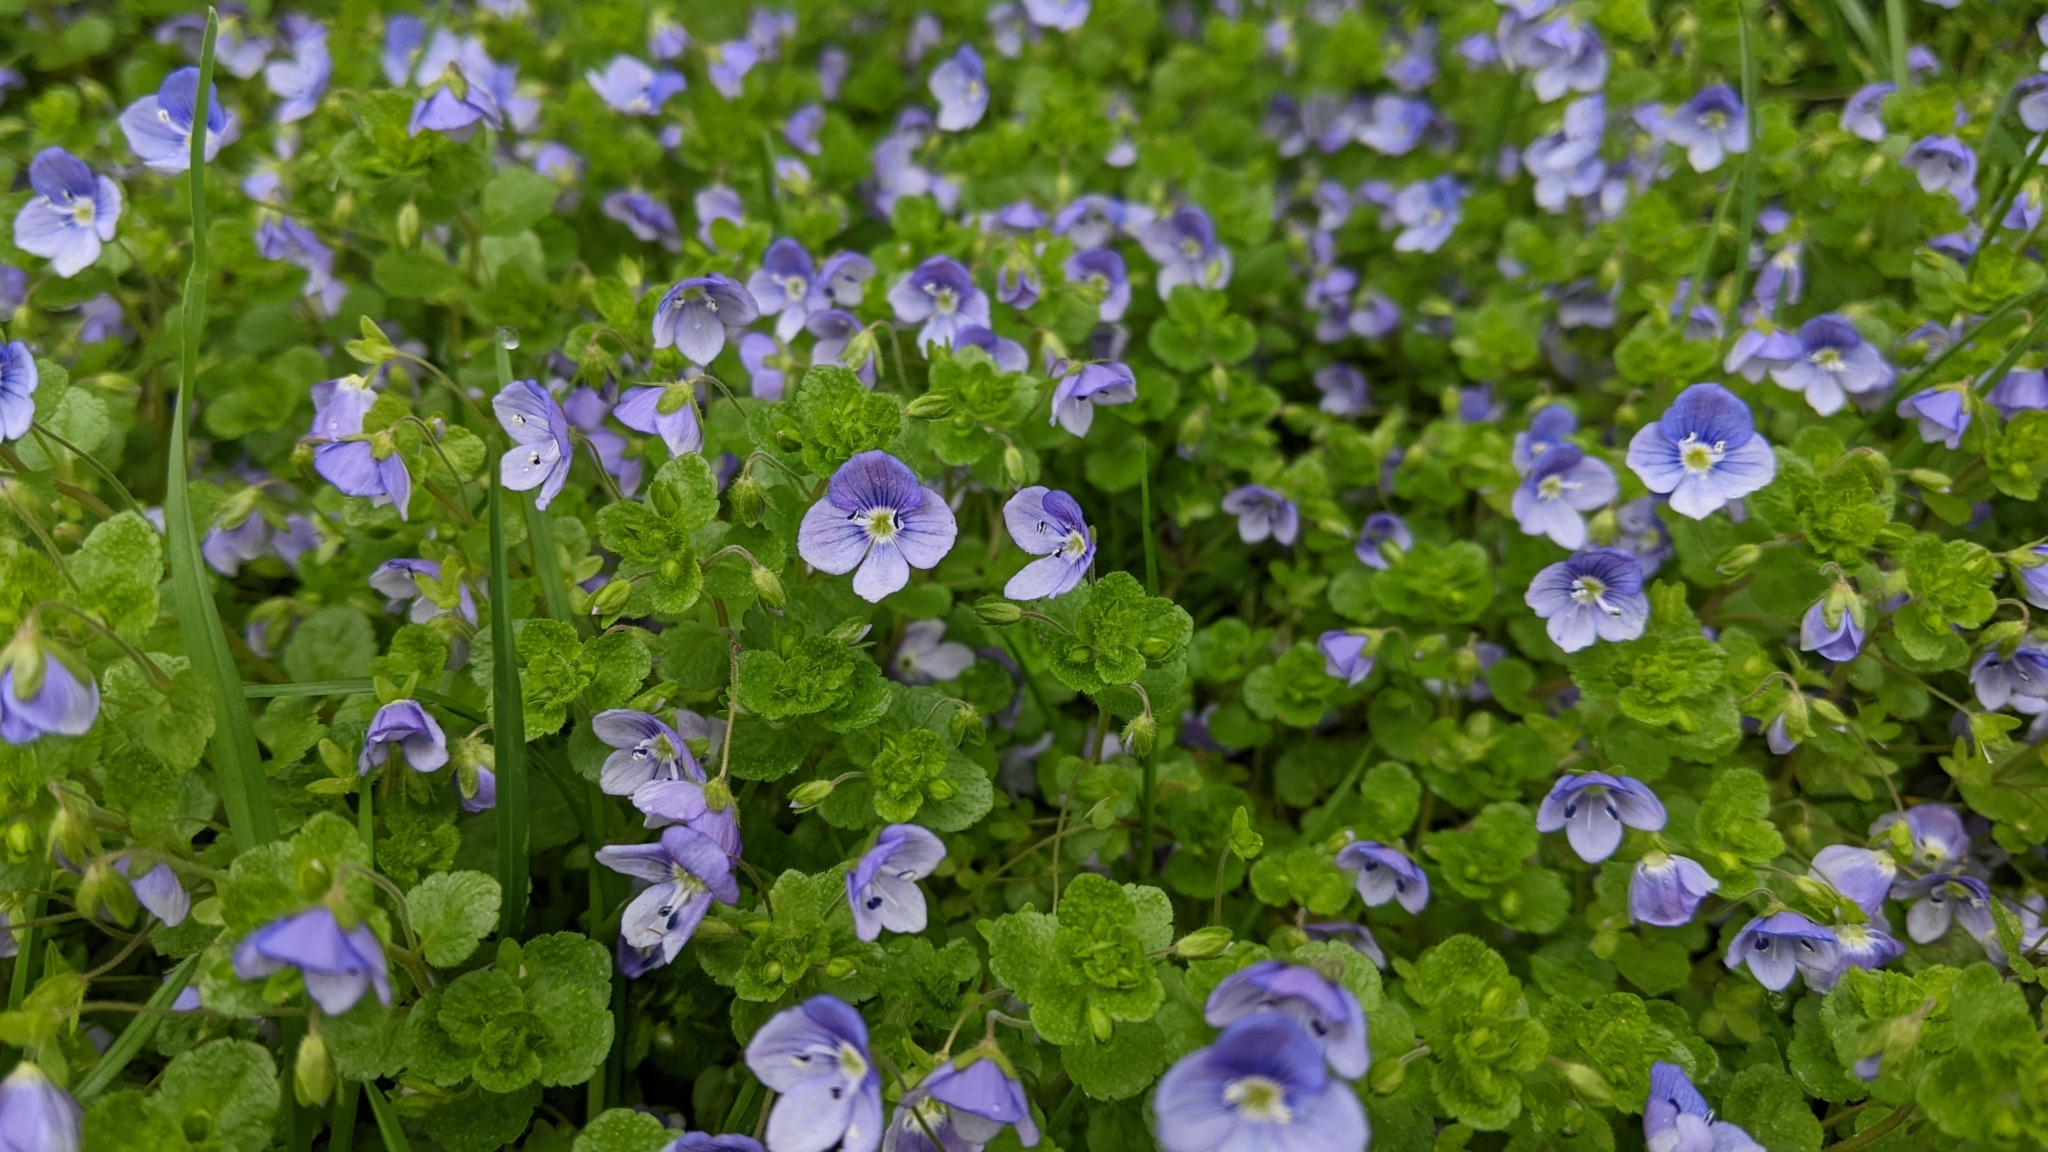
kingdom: Plantae
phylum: Tracheophyta
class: Magnoliopsida
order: Lamiales
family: Plantaginaceae
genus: Veronica
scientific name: Veronica filiformis
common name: Slender speedwell
